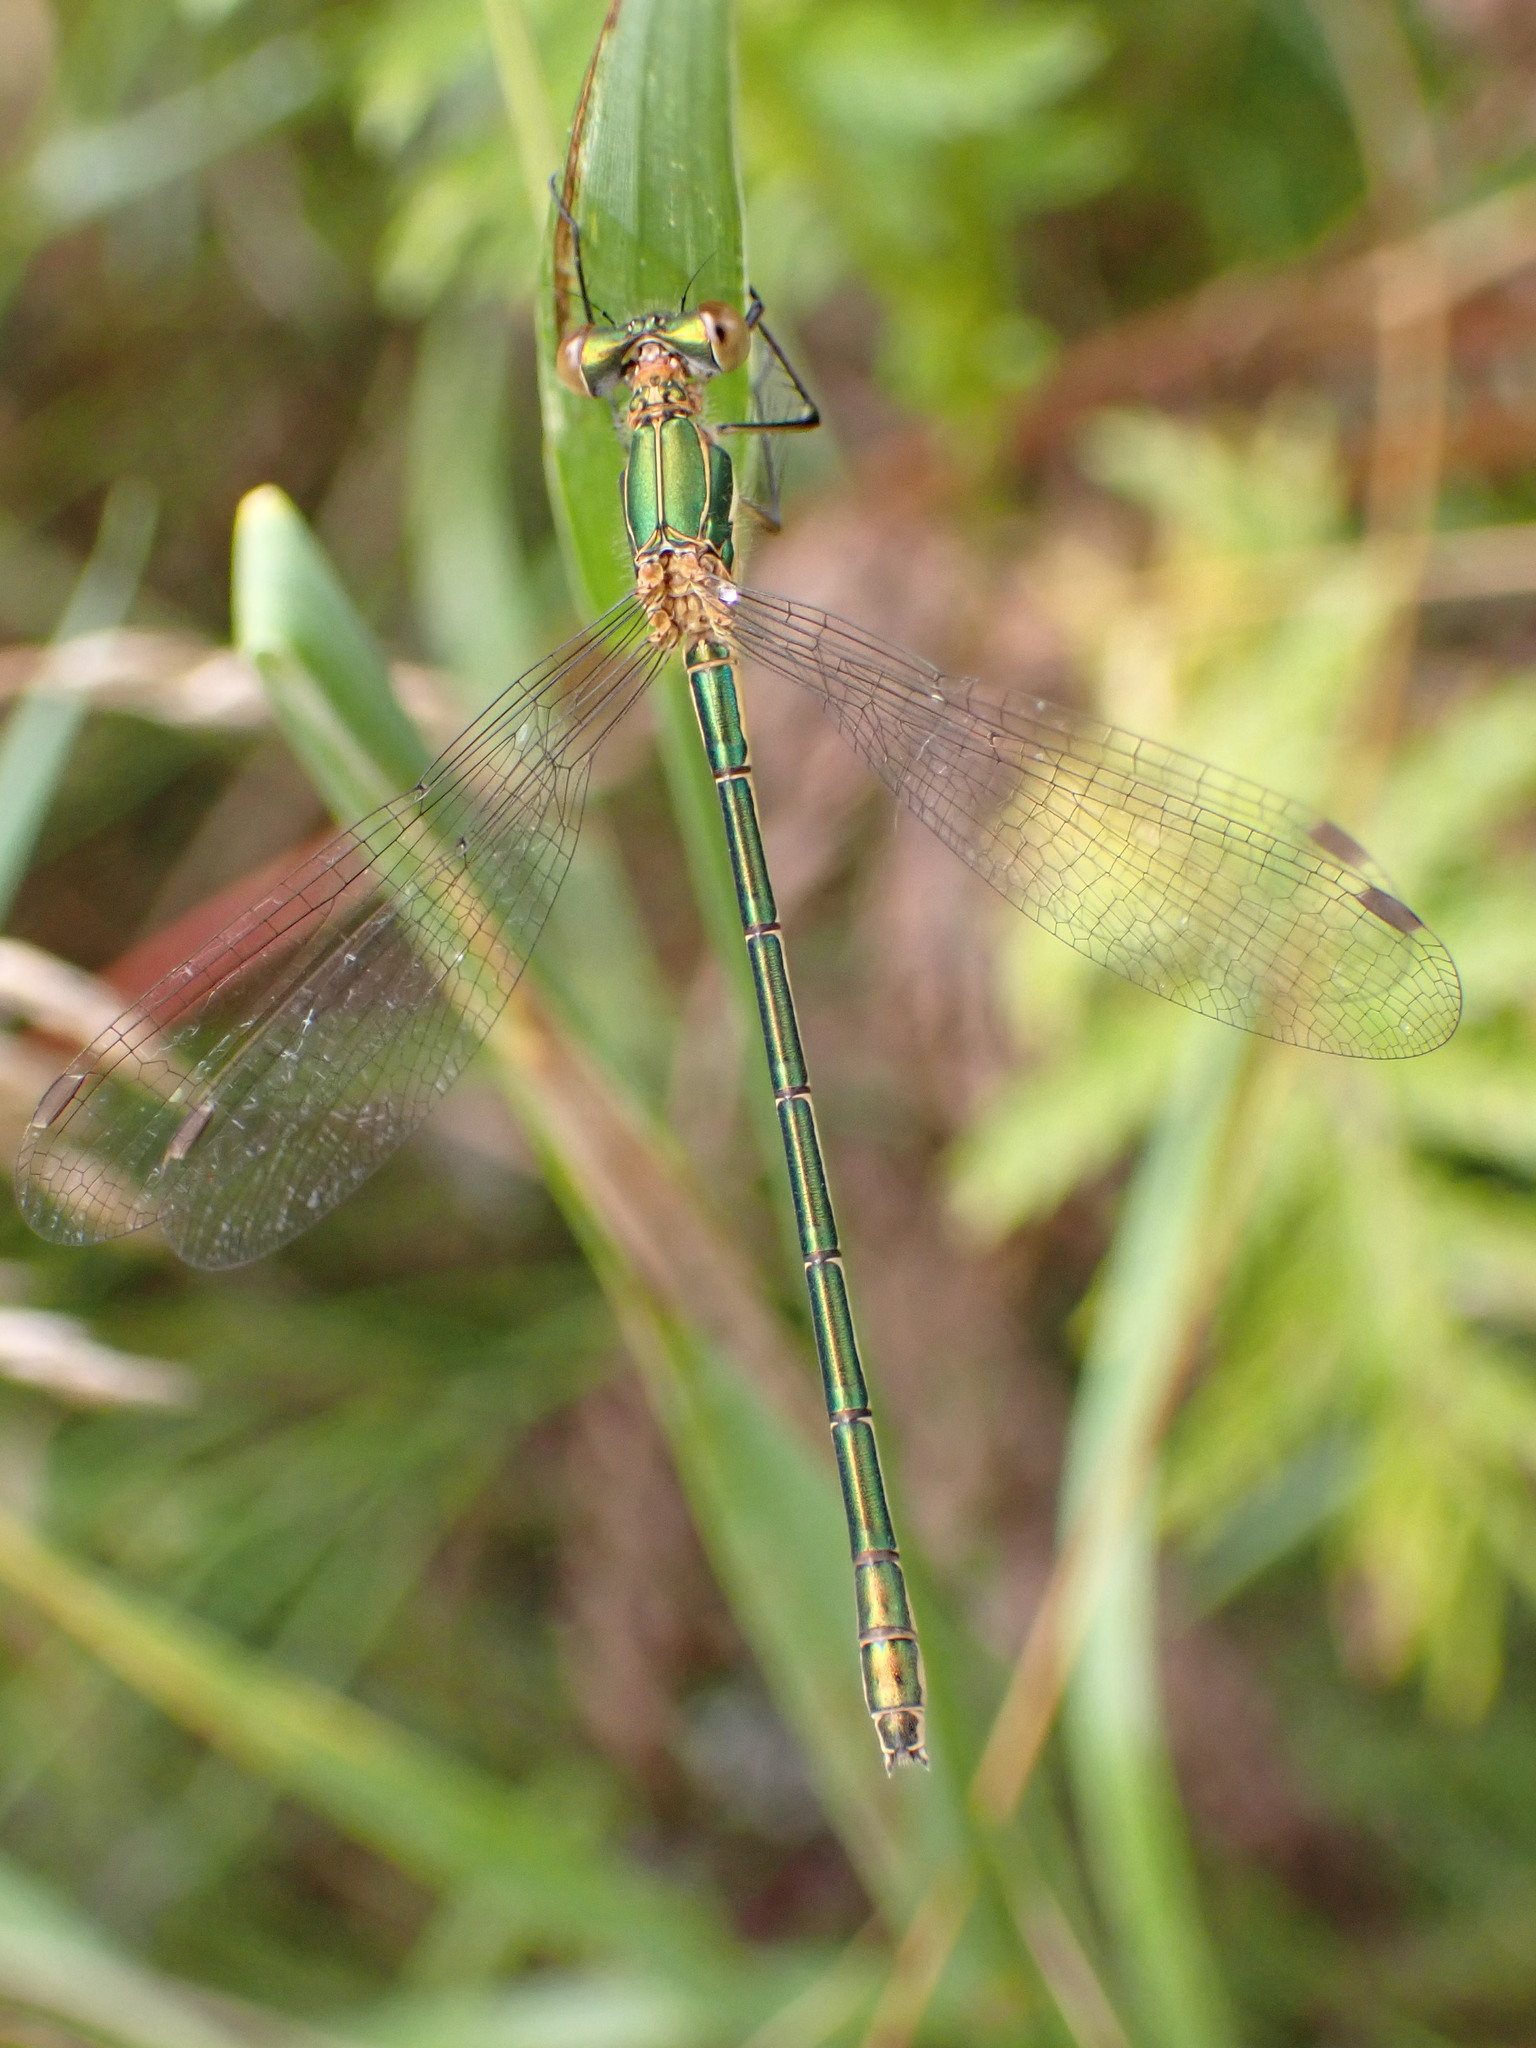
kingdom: Animalia
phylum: Arthropoda
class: Insecta
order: Odonata
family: Lestidae
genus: Lestes
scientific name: Lestes sponsa
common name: Common spreadwing
